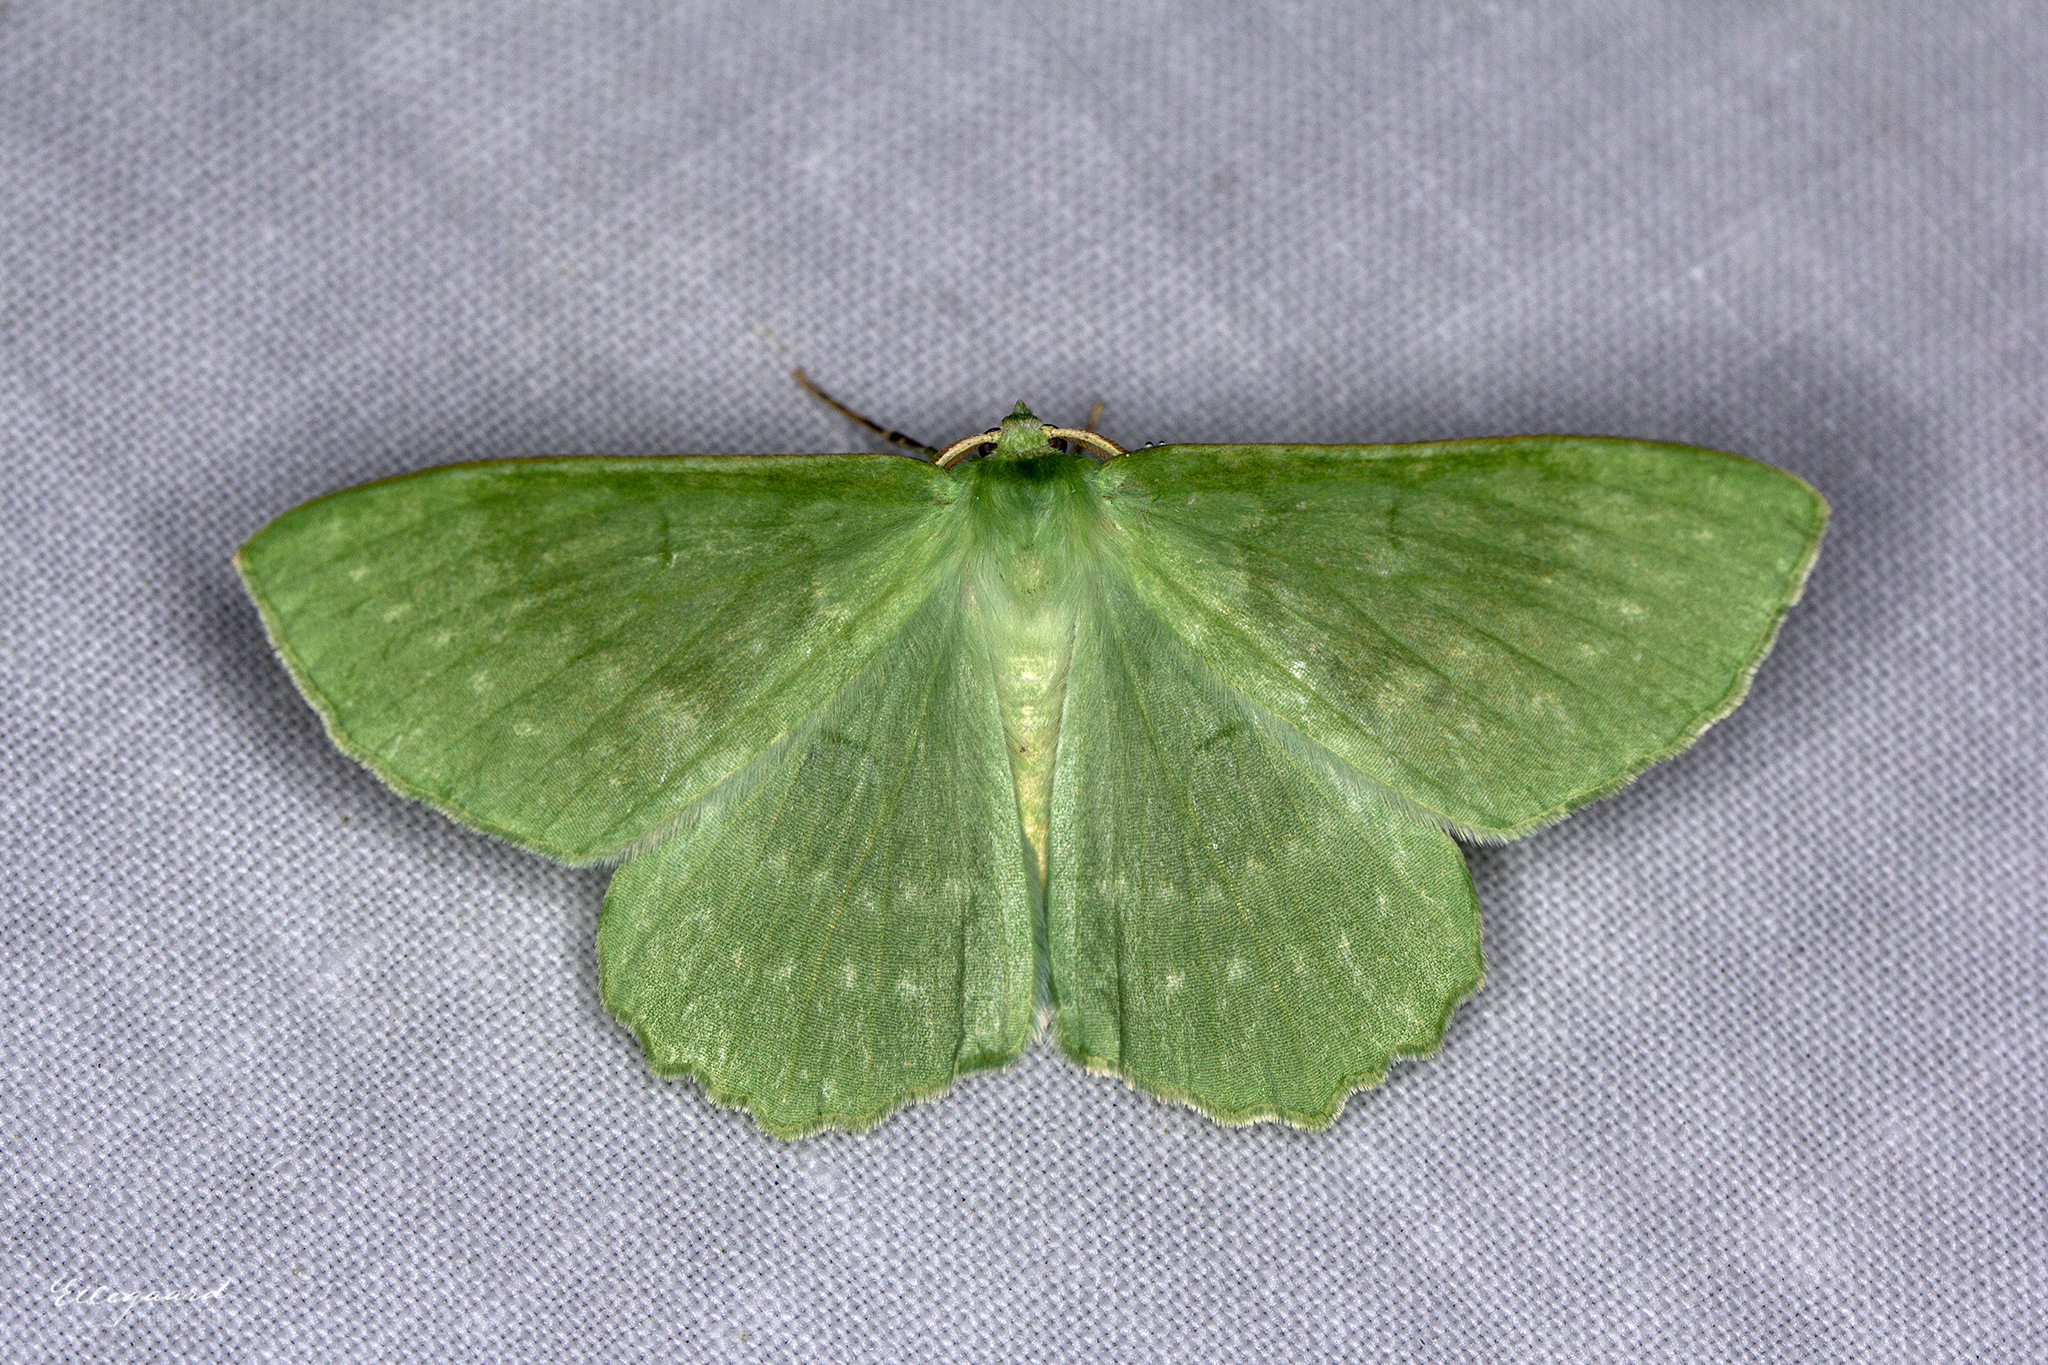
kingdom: Animalia
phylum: Arthropoda
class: Insecta
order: Lepidoptera
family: Geometridae
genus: Geometra
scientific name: Geometra papilionaria
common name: Large emerald
